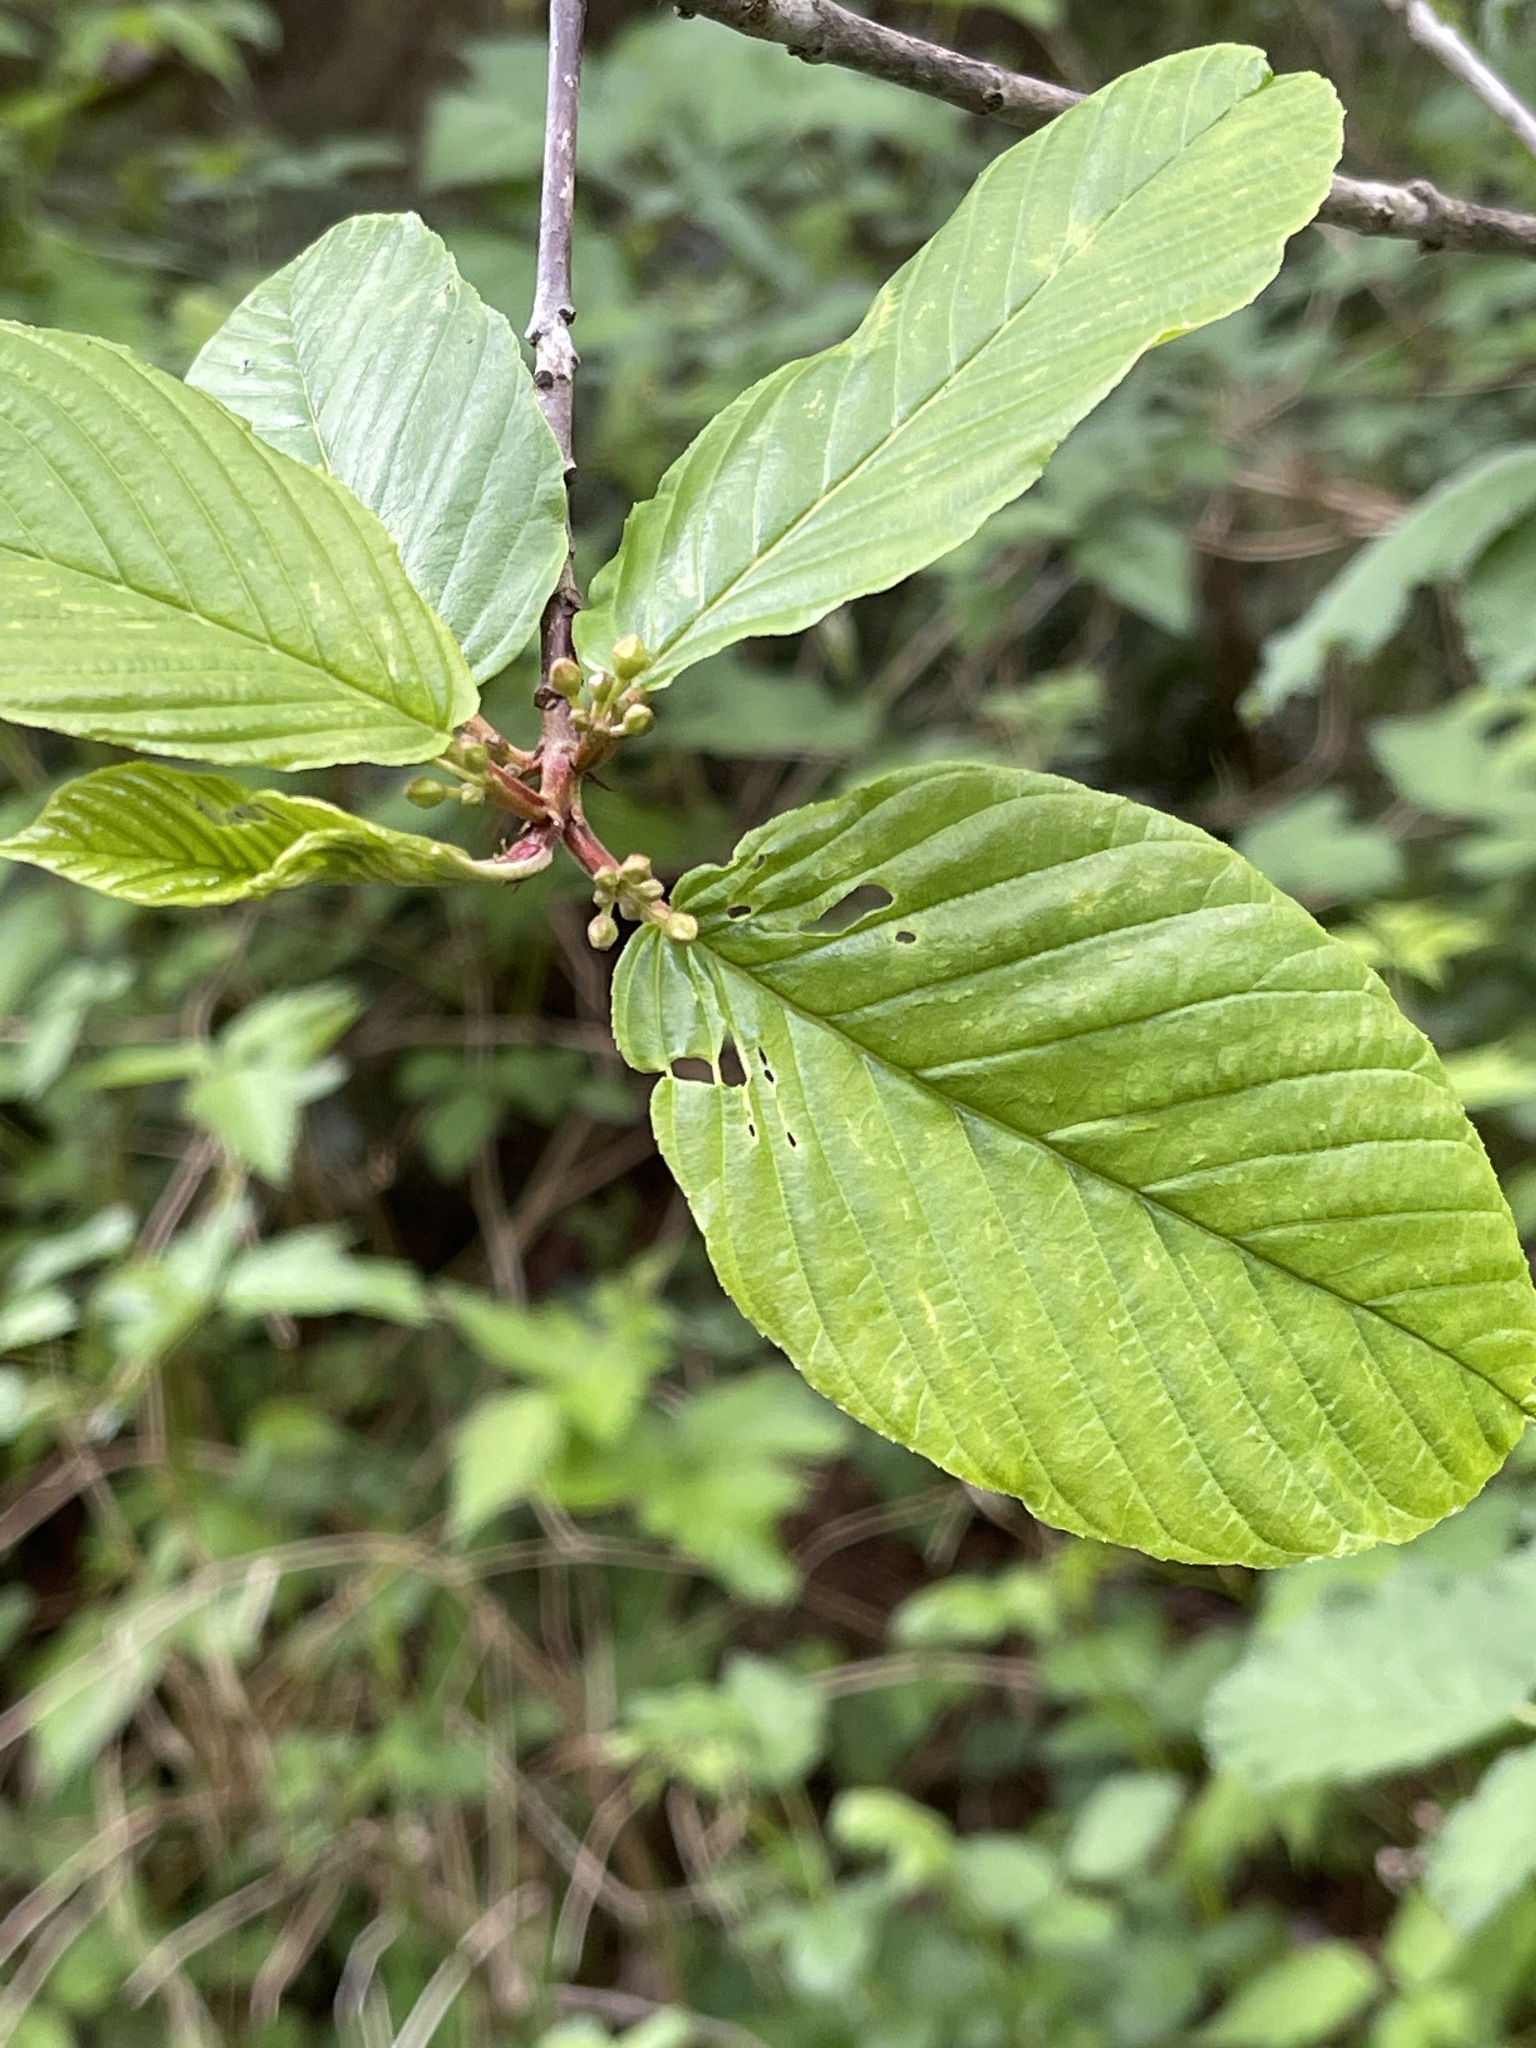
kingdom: Plantae
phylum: Tracheophyta
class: Magnoliopsida
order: Rosales
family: Rhamnaceae
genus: Frangula
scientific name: Frangula purshiana
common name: Cascara buckthorn
